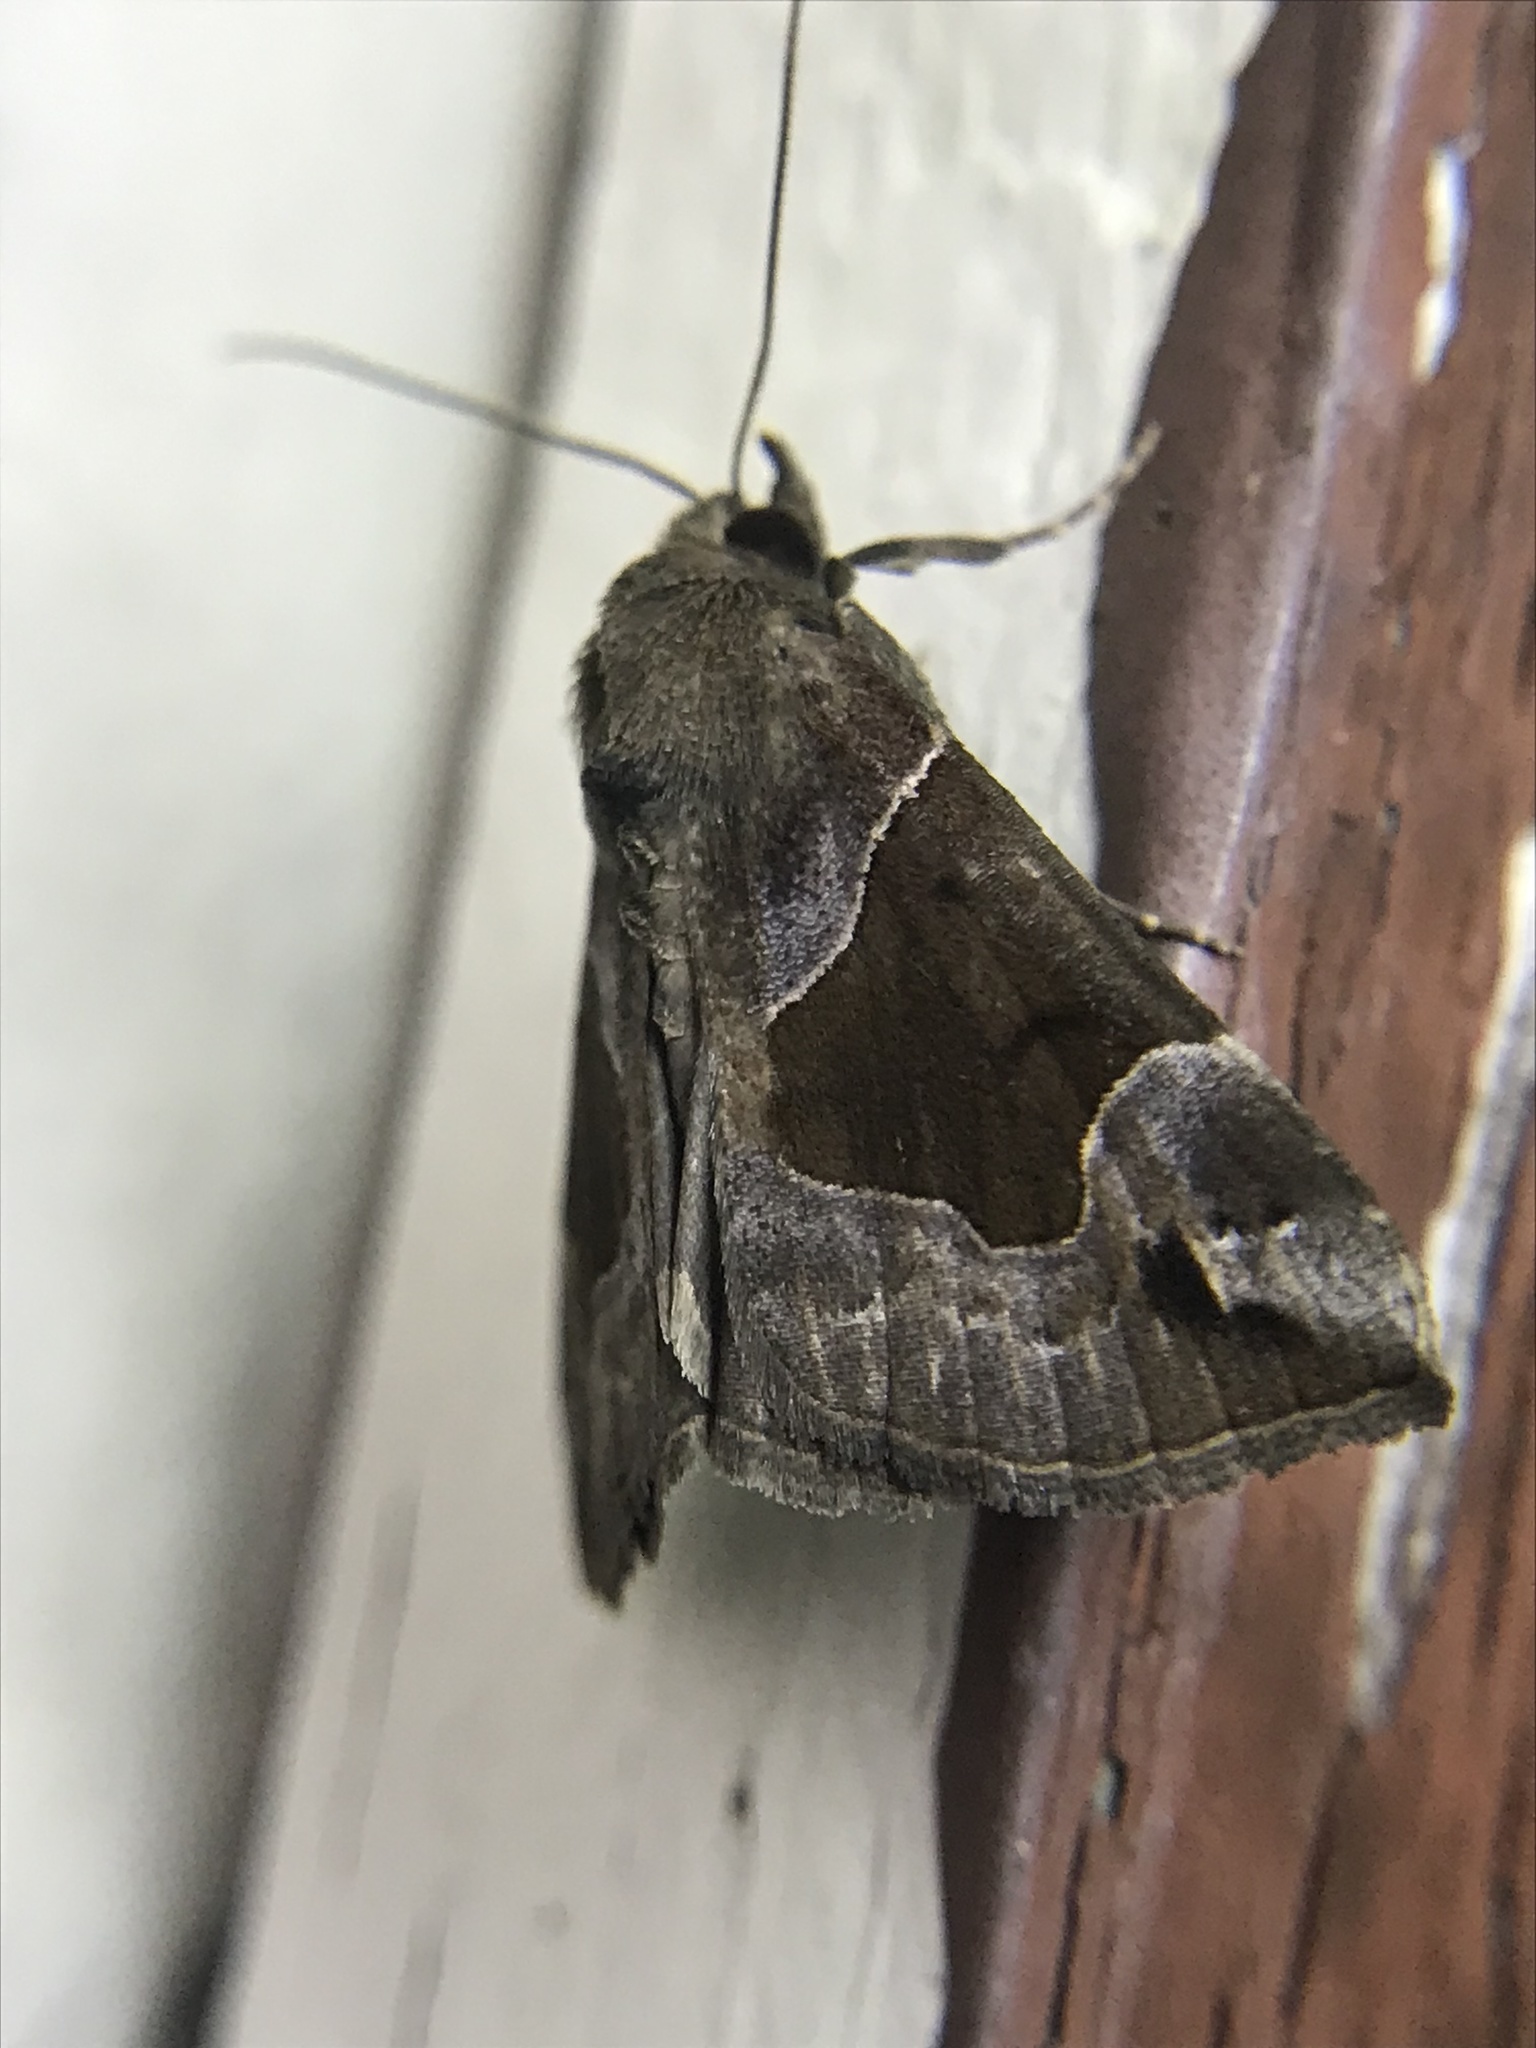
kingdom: Animalia
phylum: Arthropoda
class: Insecta
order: Lepidoptera
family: Erebidae
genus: Hypena
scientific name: Hypena manalis
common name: Flowing-line bomolocha moth
